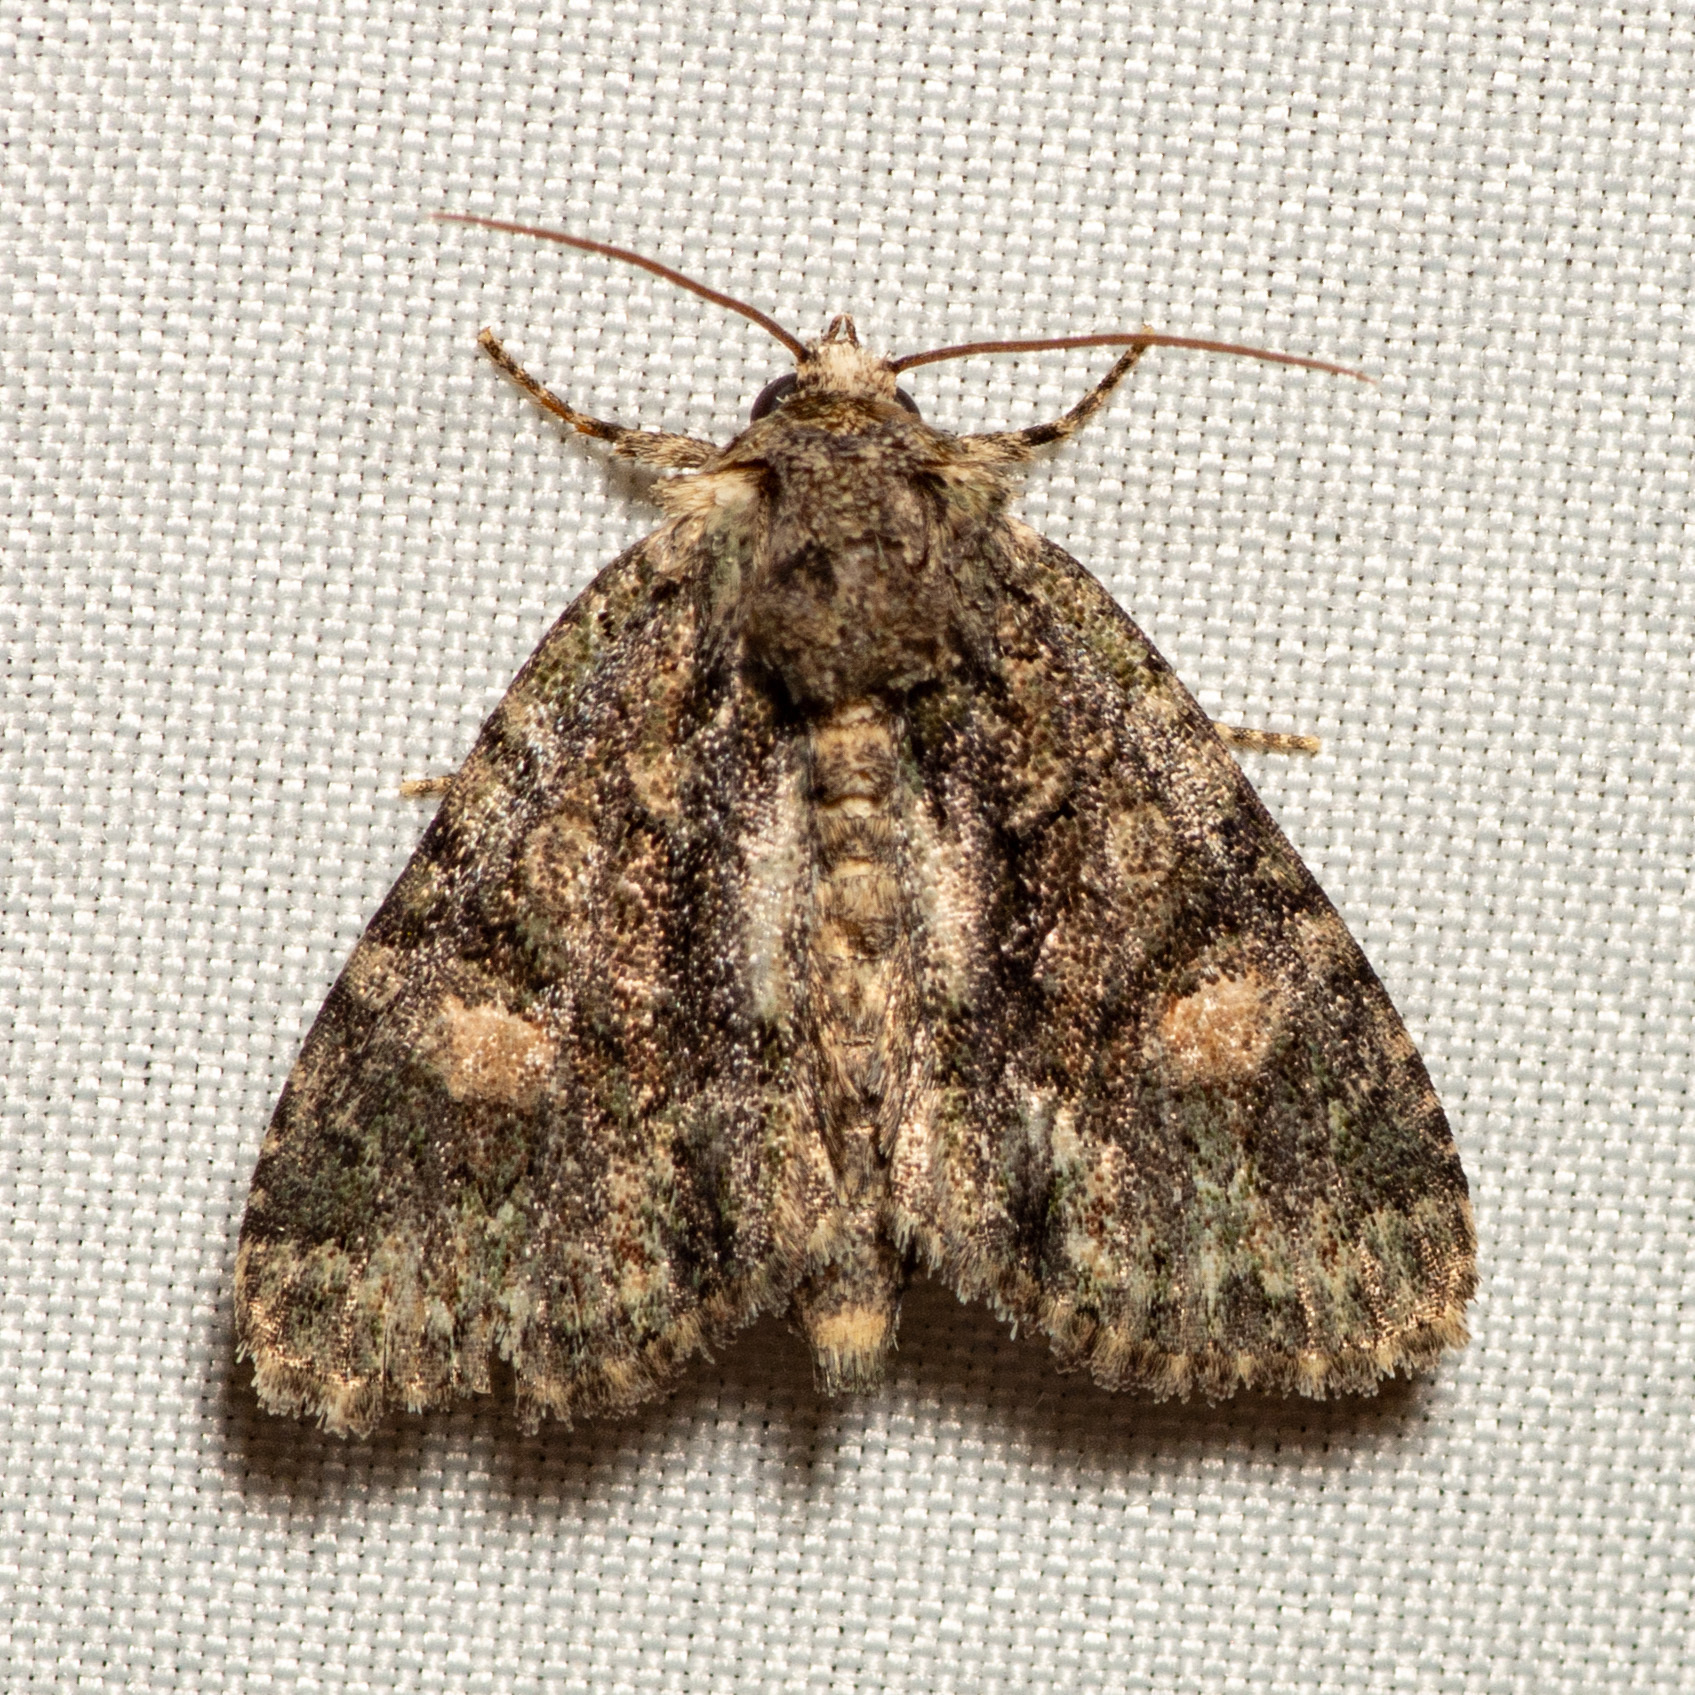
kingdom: Animalia
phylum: Arthropoda
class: Insecta
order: Lepidoptera
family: Noctuidae
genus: Phosphila
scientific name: Phosphila miselioides
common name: Spotted phosphila moth
